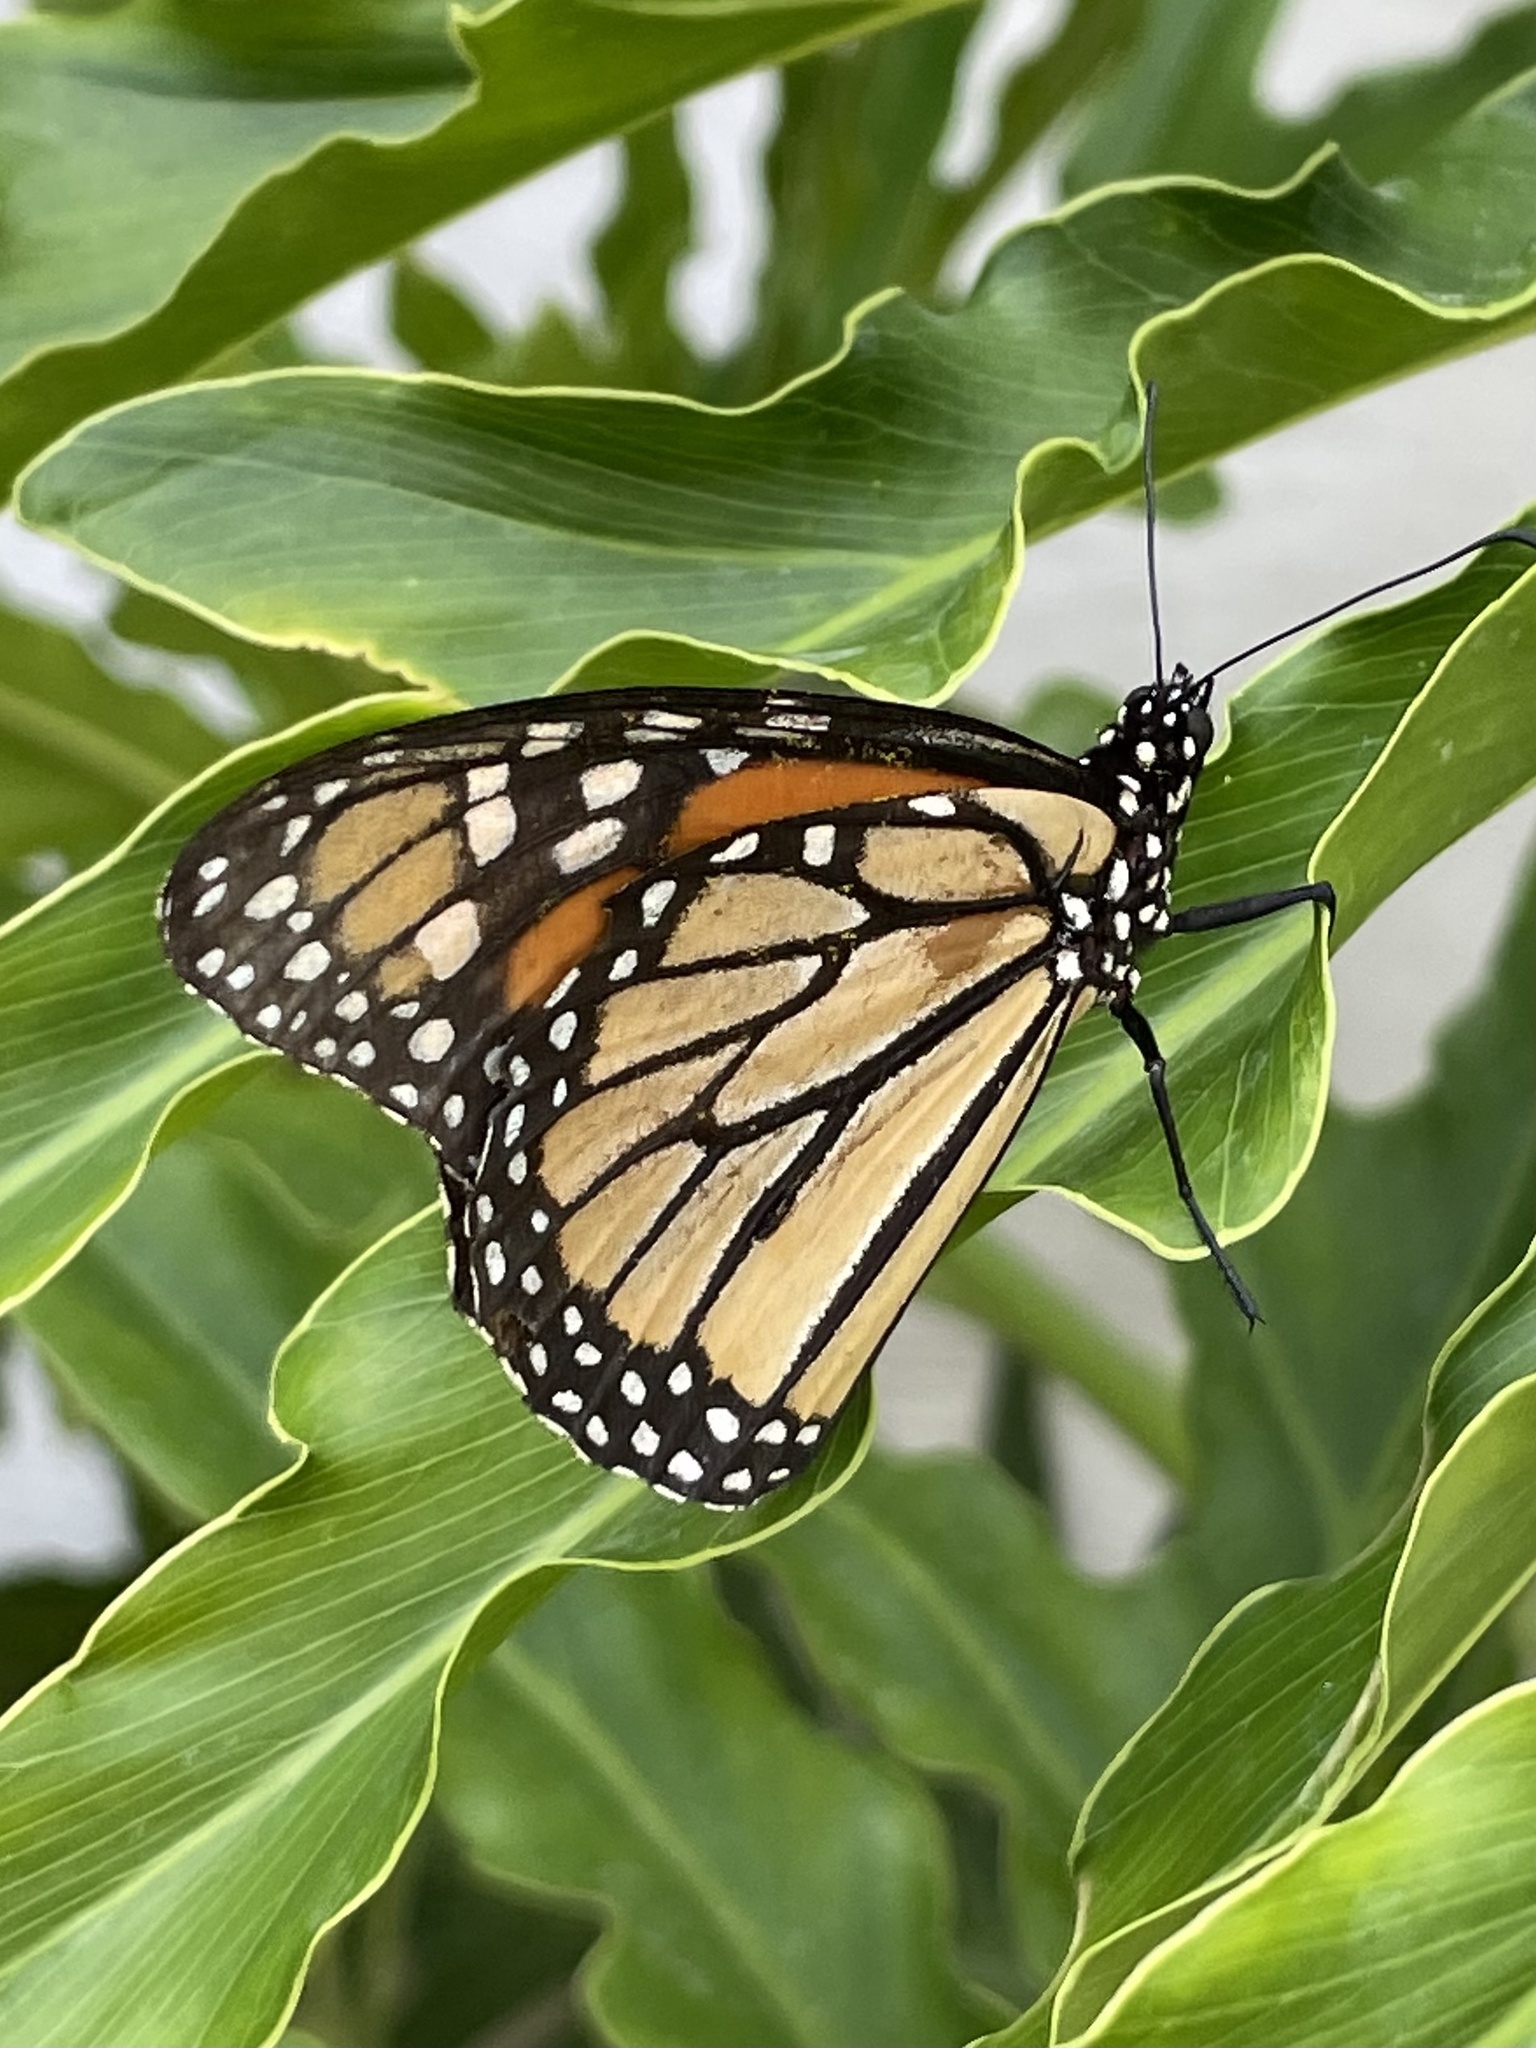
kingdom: Animalia
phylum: Arthropoda
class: Insecta
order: Lepidoptera
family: Nymphalidae
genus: Danaus
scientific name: Danaus plexippus
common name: Monarch
